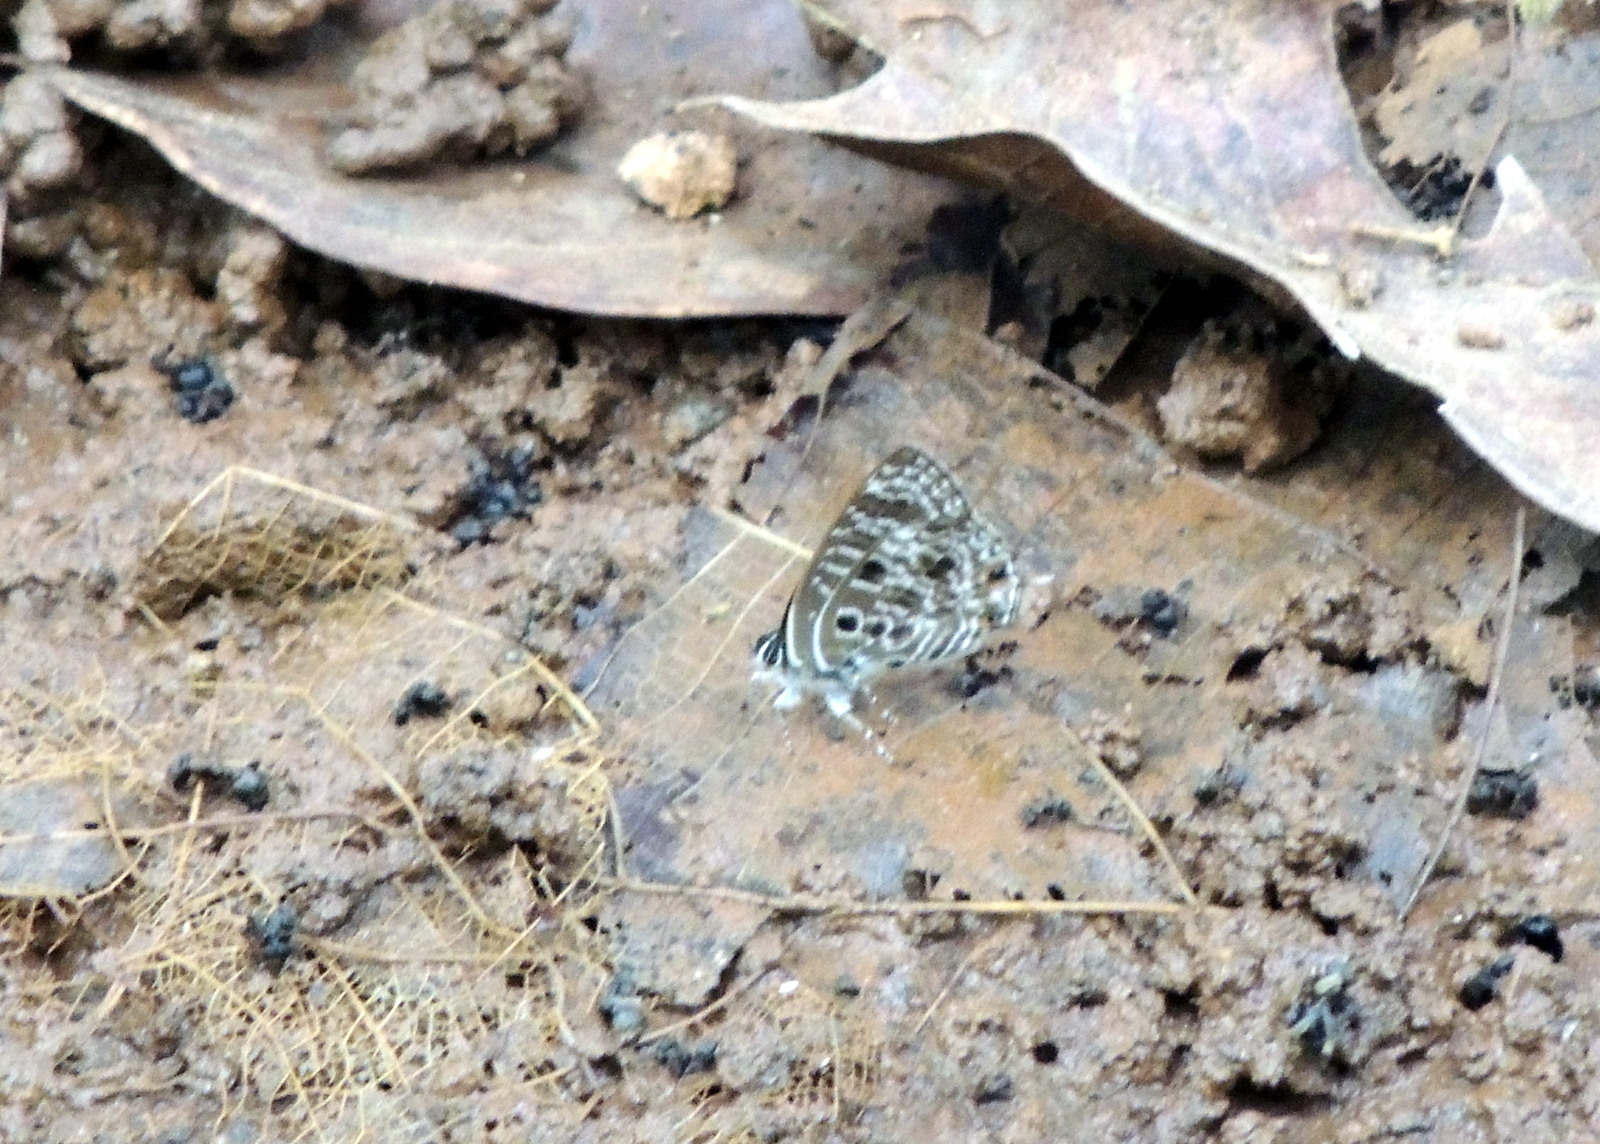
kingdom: Animalia
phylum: Arthropoda
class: Insecta
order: Lepidoptera
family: Lycaenidae
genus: Anthene
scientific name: Anthene larydas
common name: Forest hairtail
